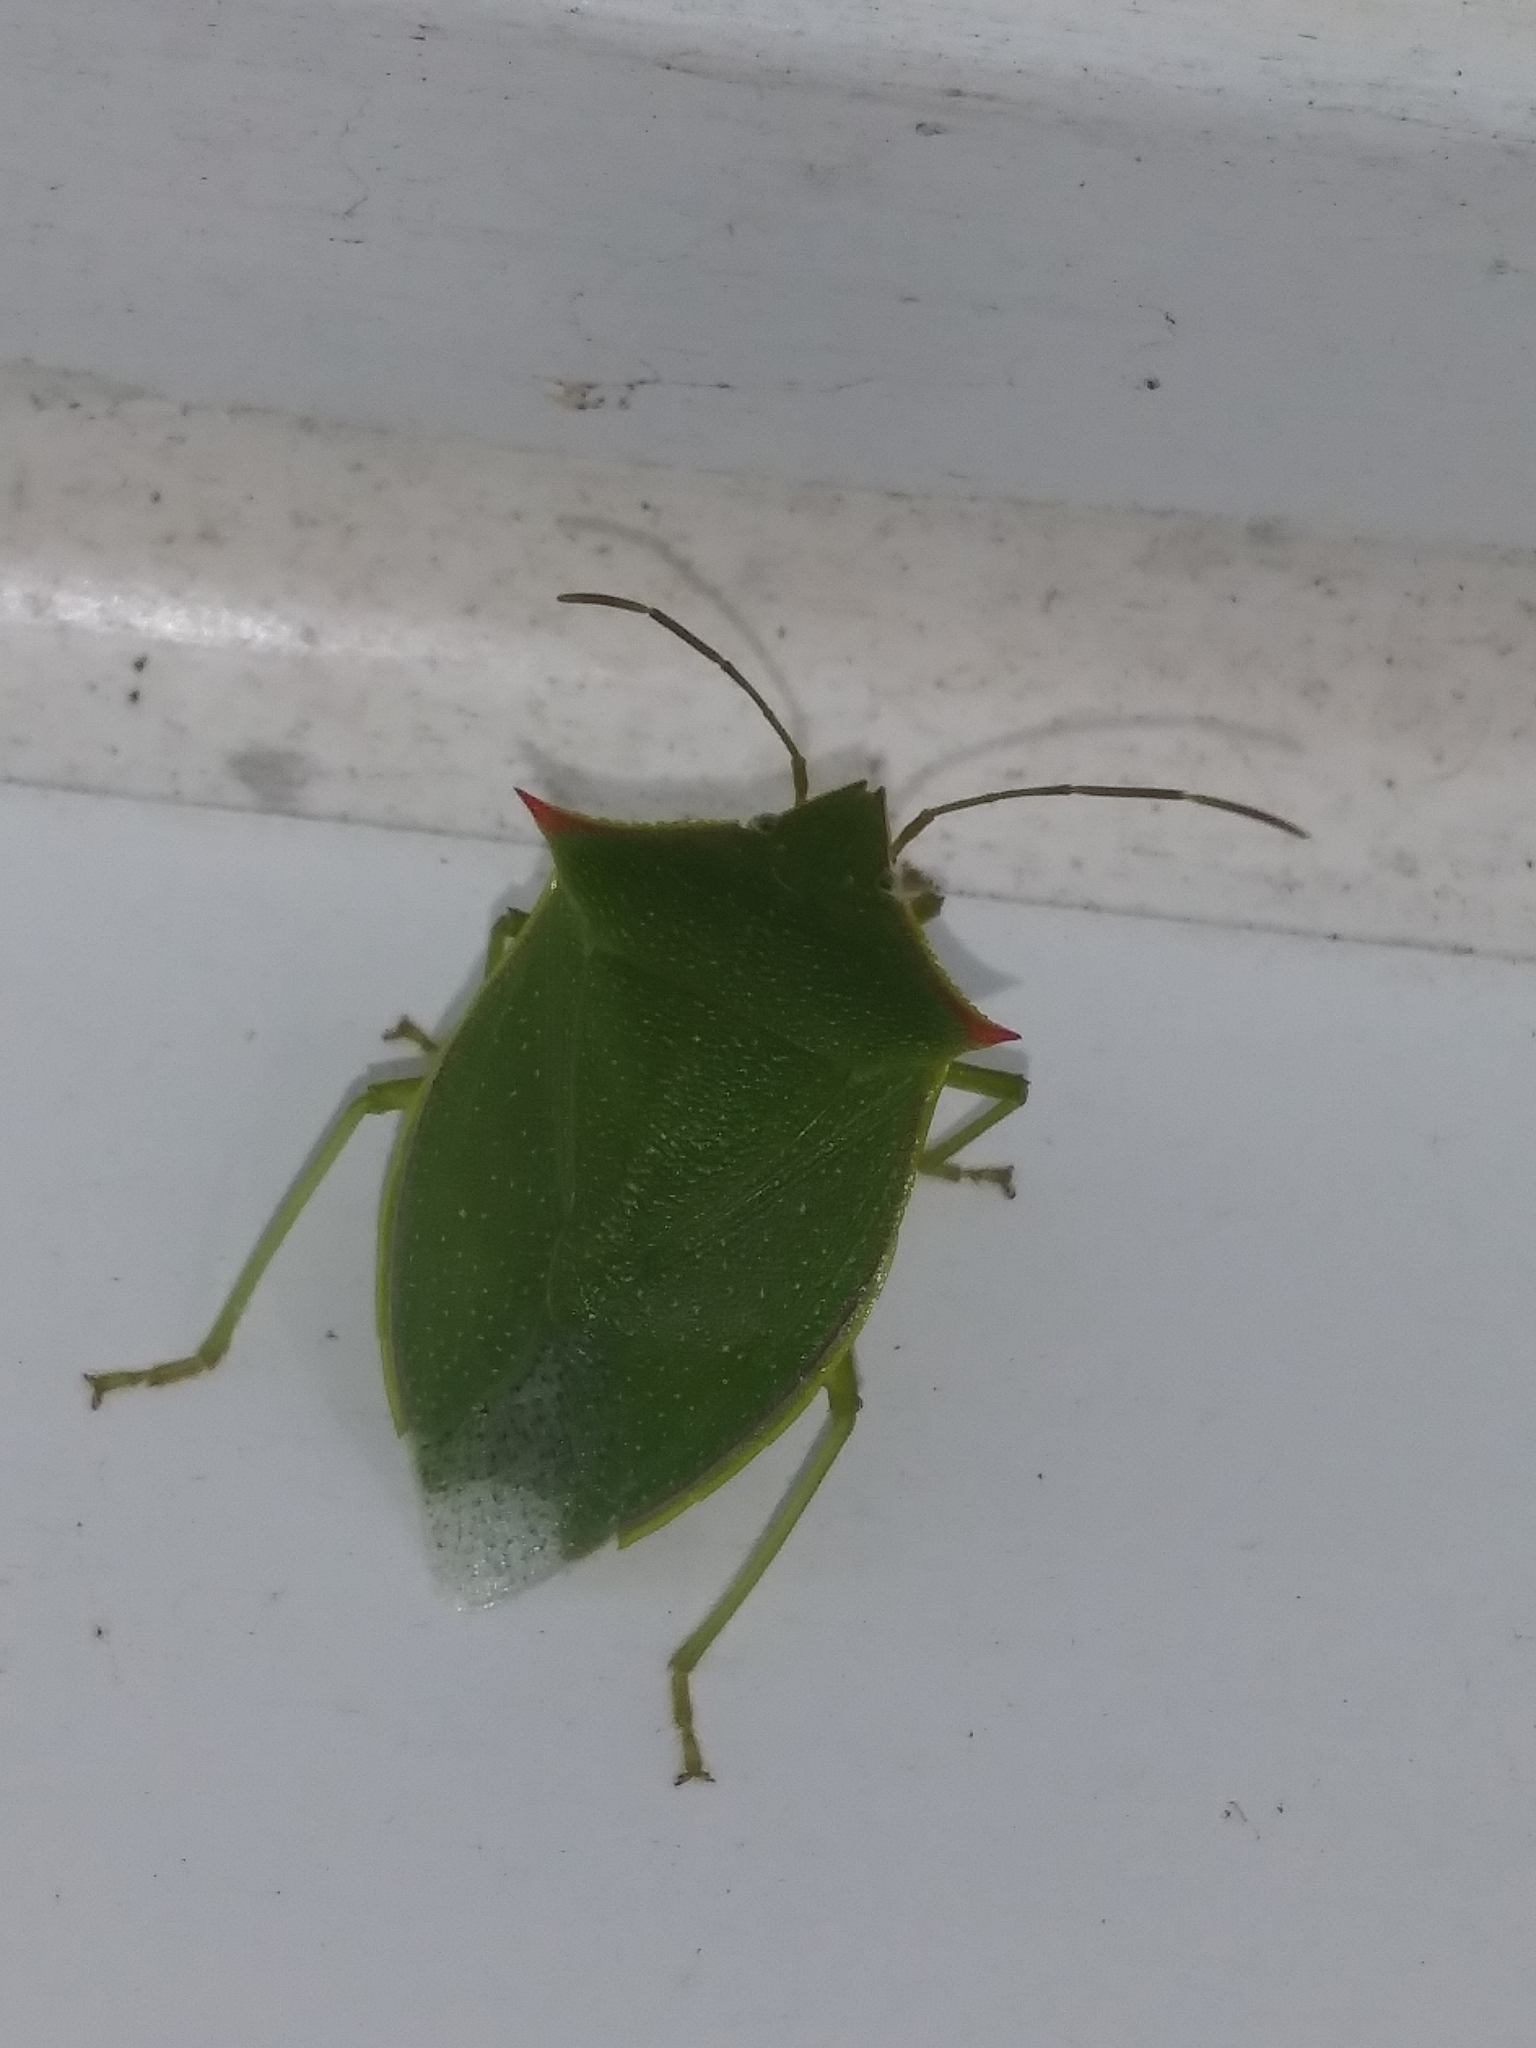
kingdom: Animalia
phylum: Arthropoda
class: Insecta
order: Hemiptera
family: Pentatomidae
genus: Loxa
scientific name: Loxa flavicollis
